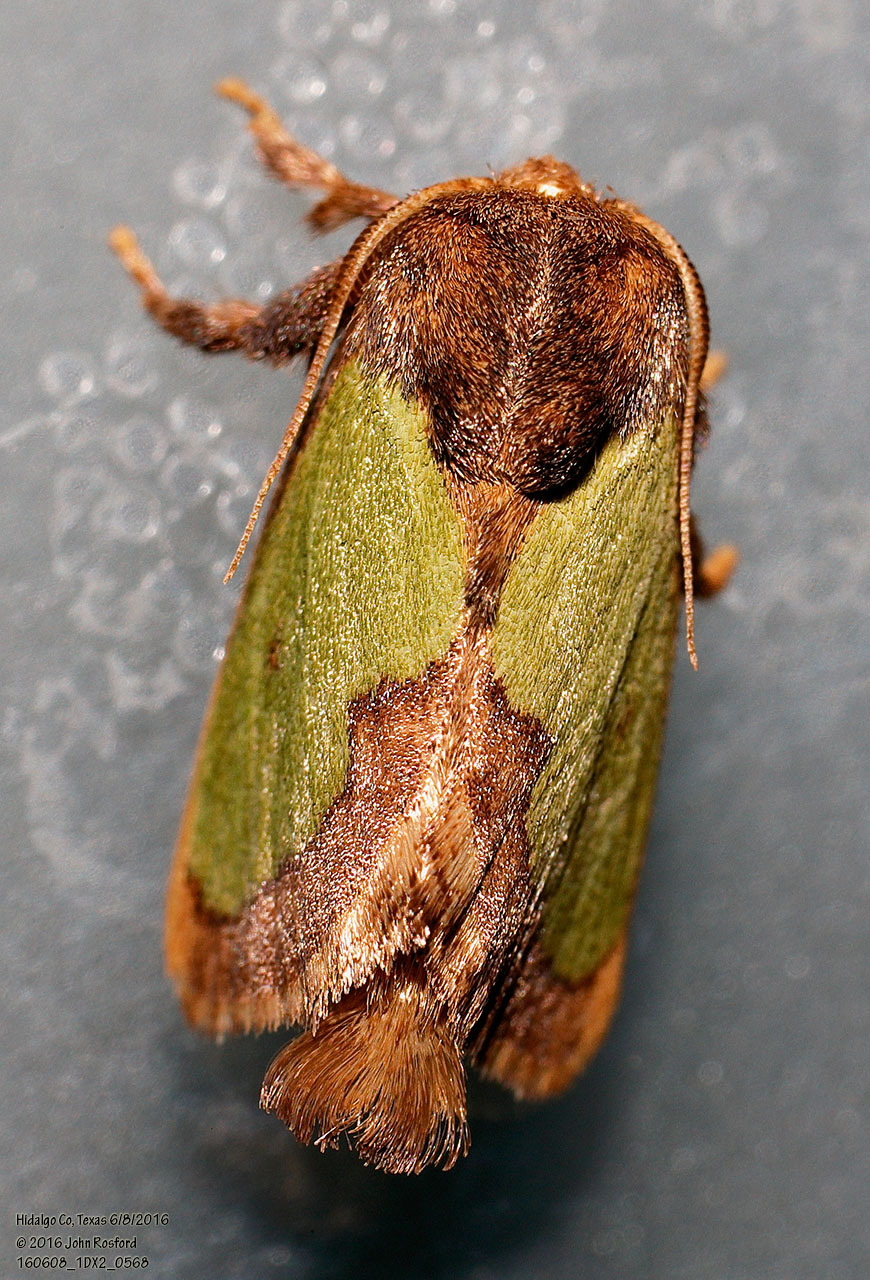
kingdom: Animalia
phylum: Arthropoda
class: Insecta
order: Lepidoptera
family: Limacodidae
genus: Euclea
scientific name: Euclea incisa
